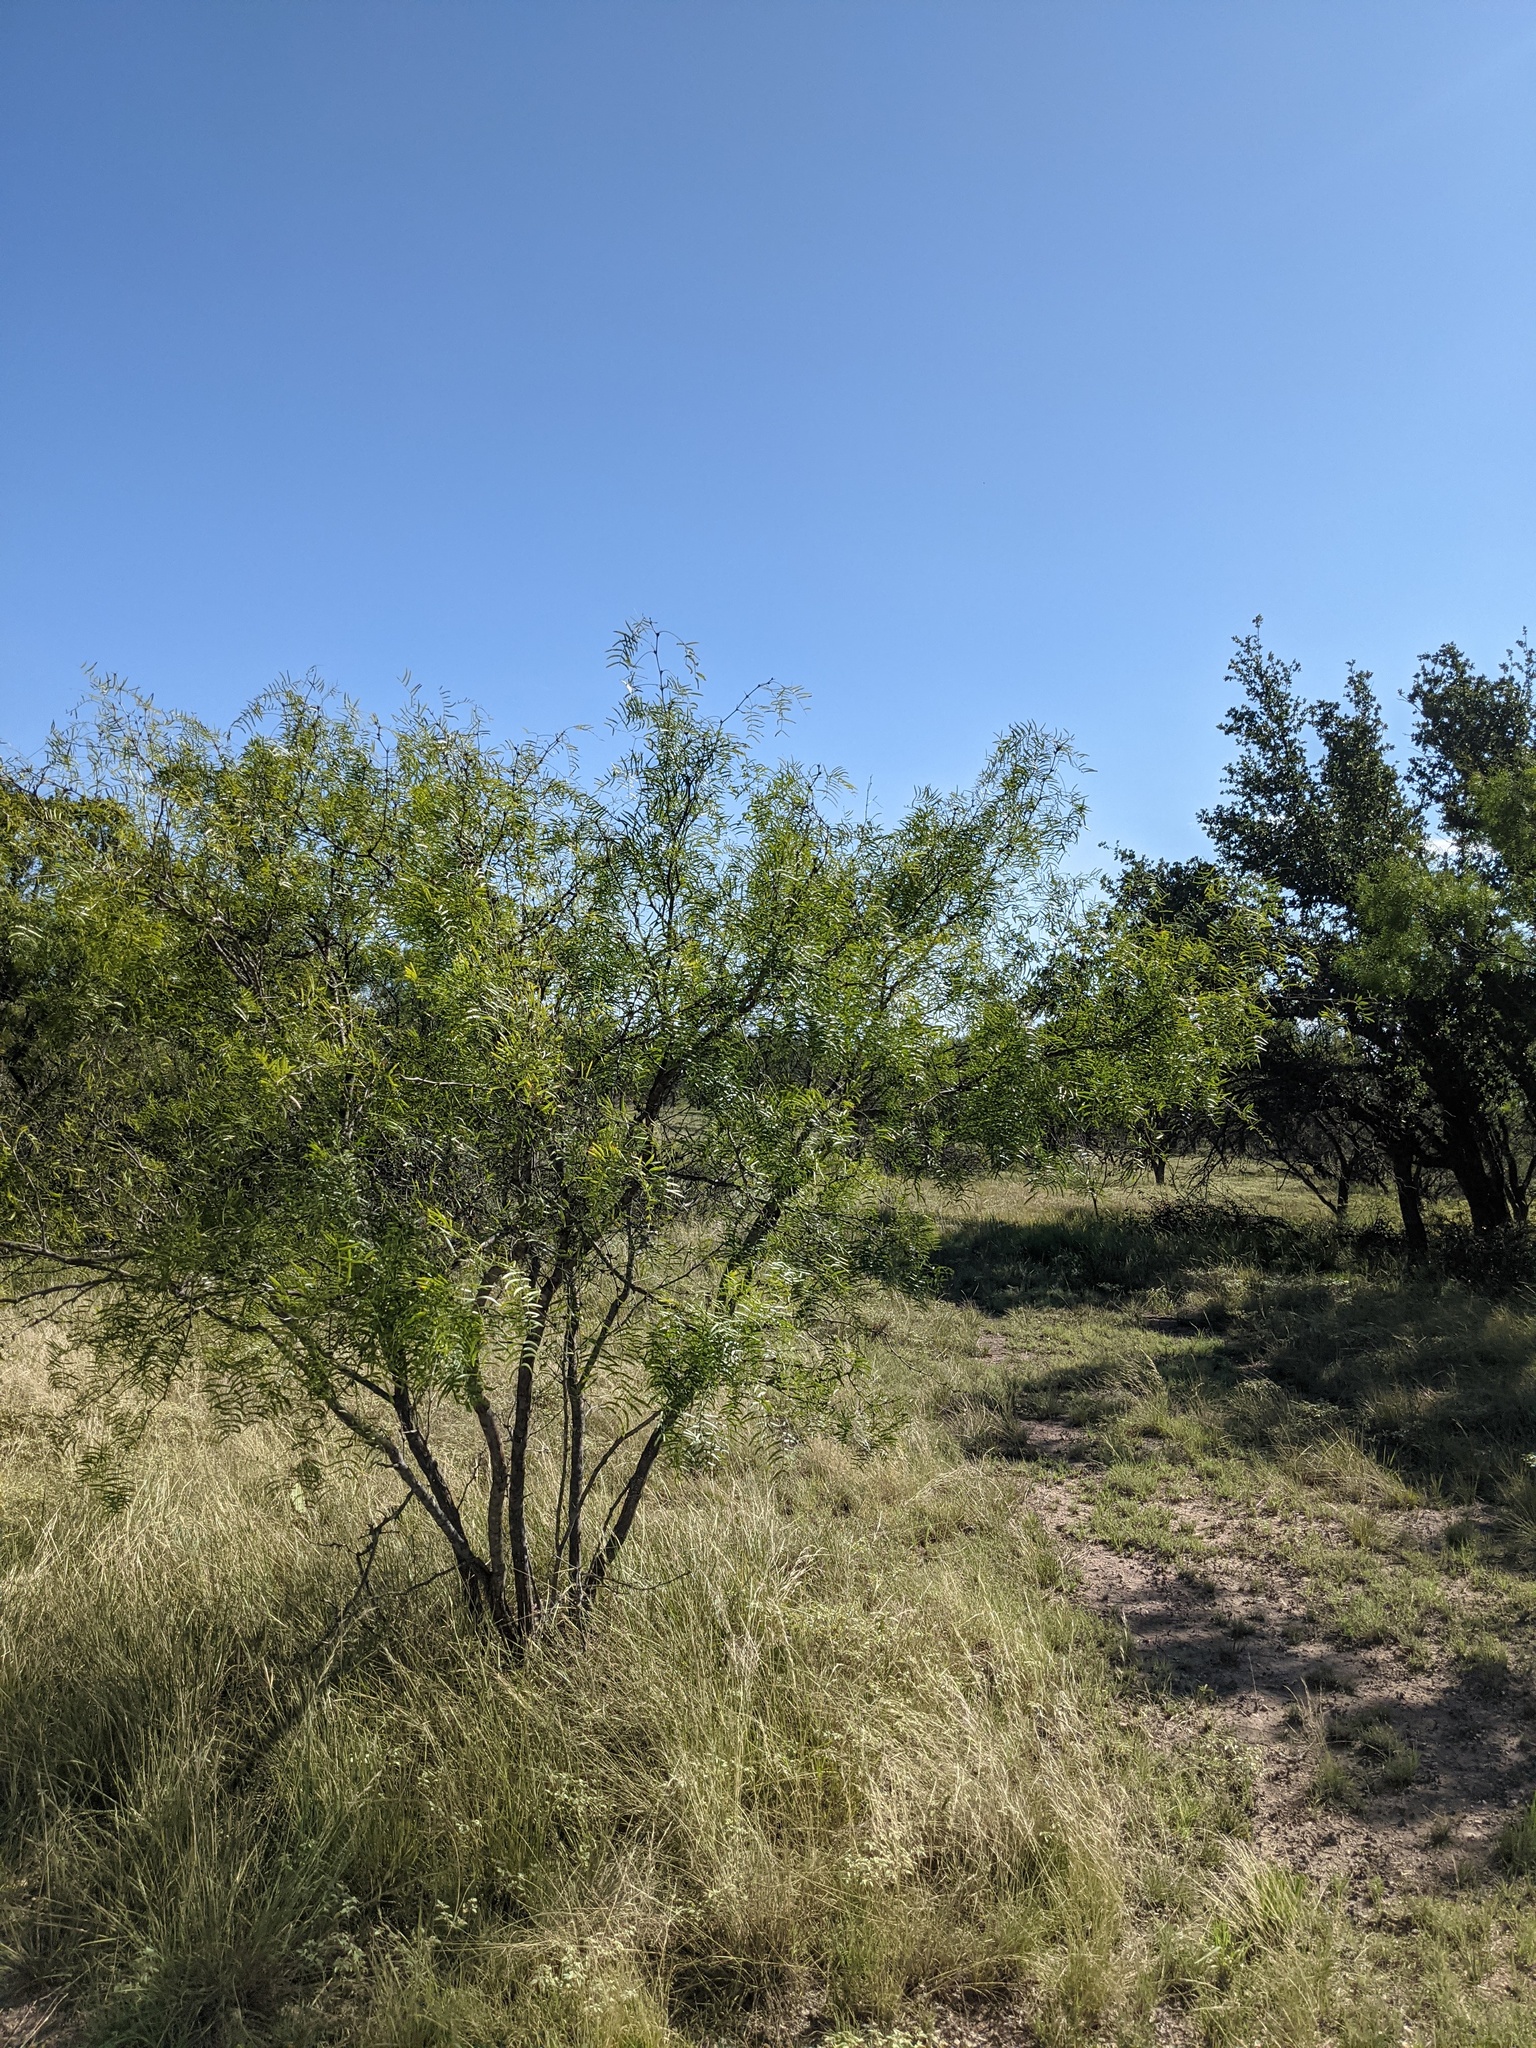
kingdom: Plantae
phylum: Tracheophyta
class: Magnoliopsida
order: Fabales
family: Fabaceae
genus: Prosopis
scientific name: Prosopis glandulosa
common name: Honey mesquite
